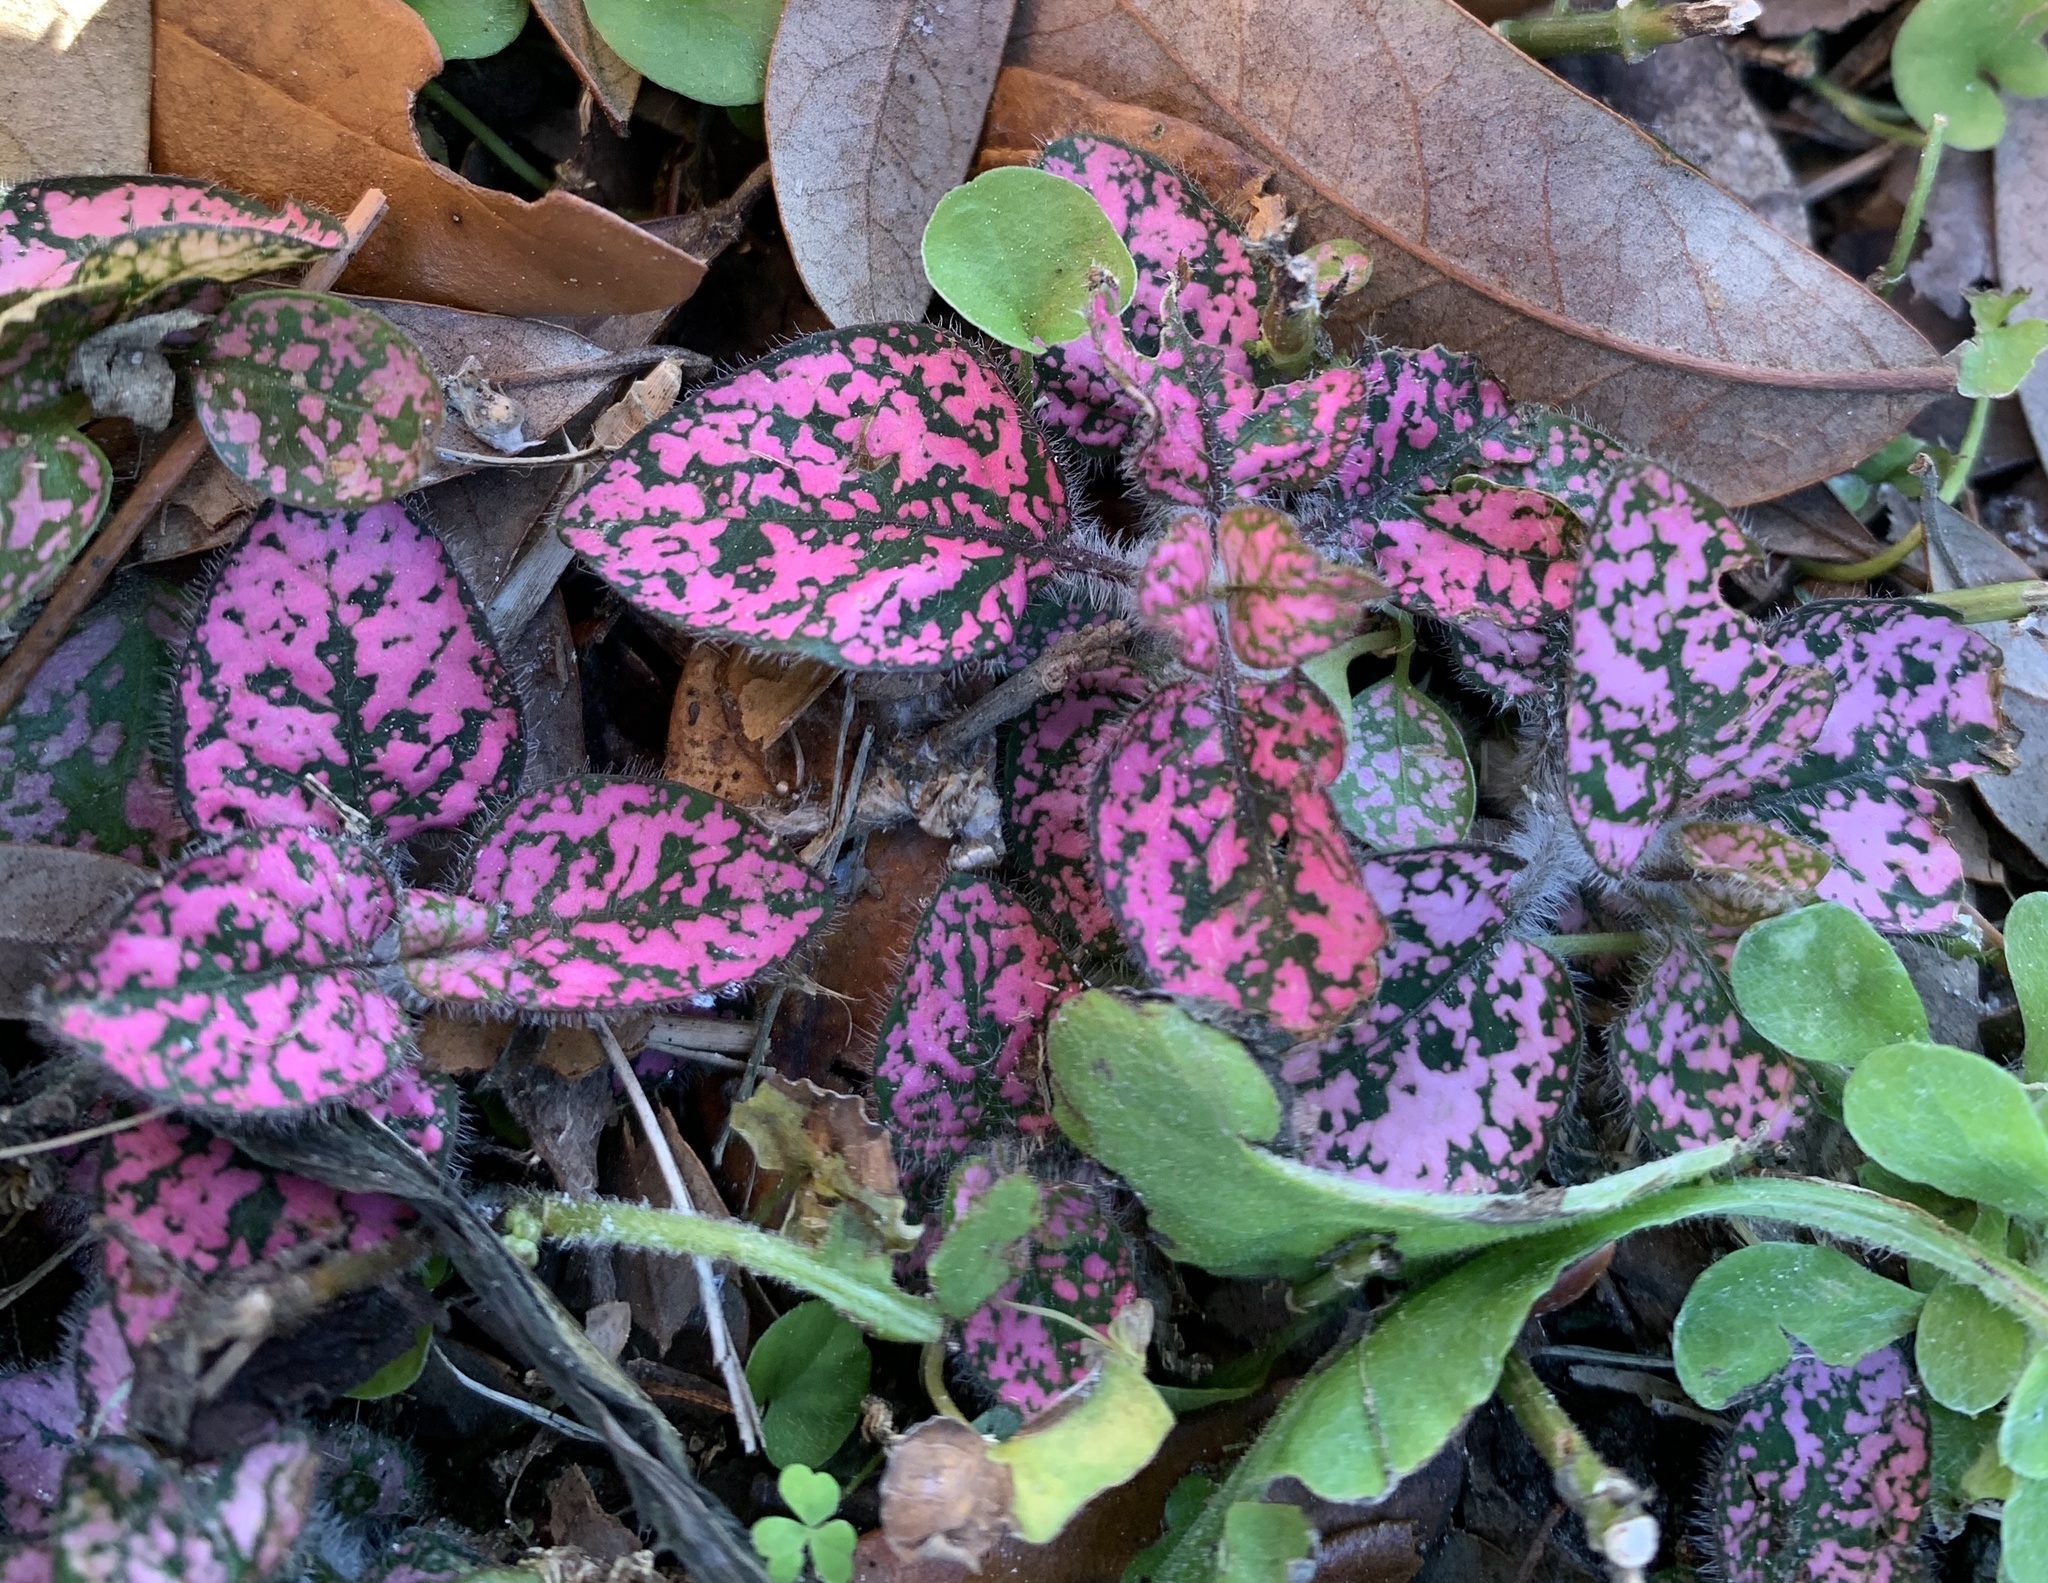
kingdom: Plantae
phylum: Tracheophyta
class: Magnoliopsida
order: Lamiales
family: Acanthaceae
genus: Hypoestes
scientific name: Hypoestes phyllostachya
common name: Polkadot-plant
